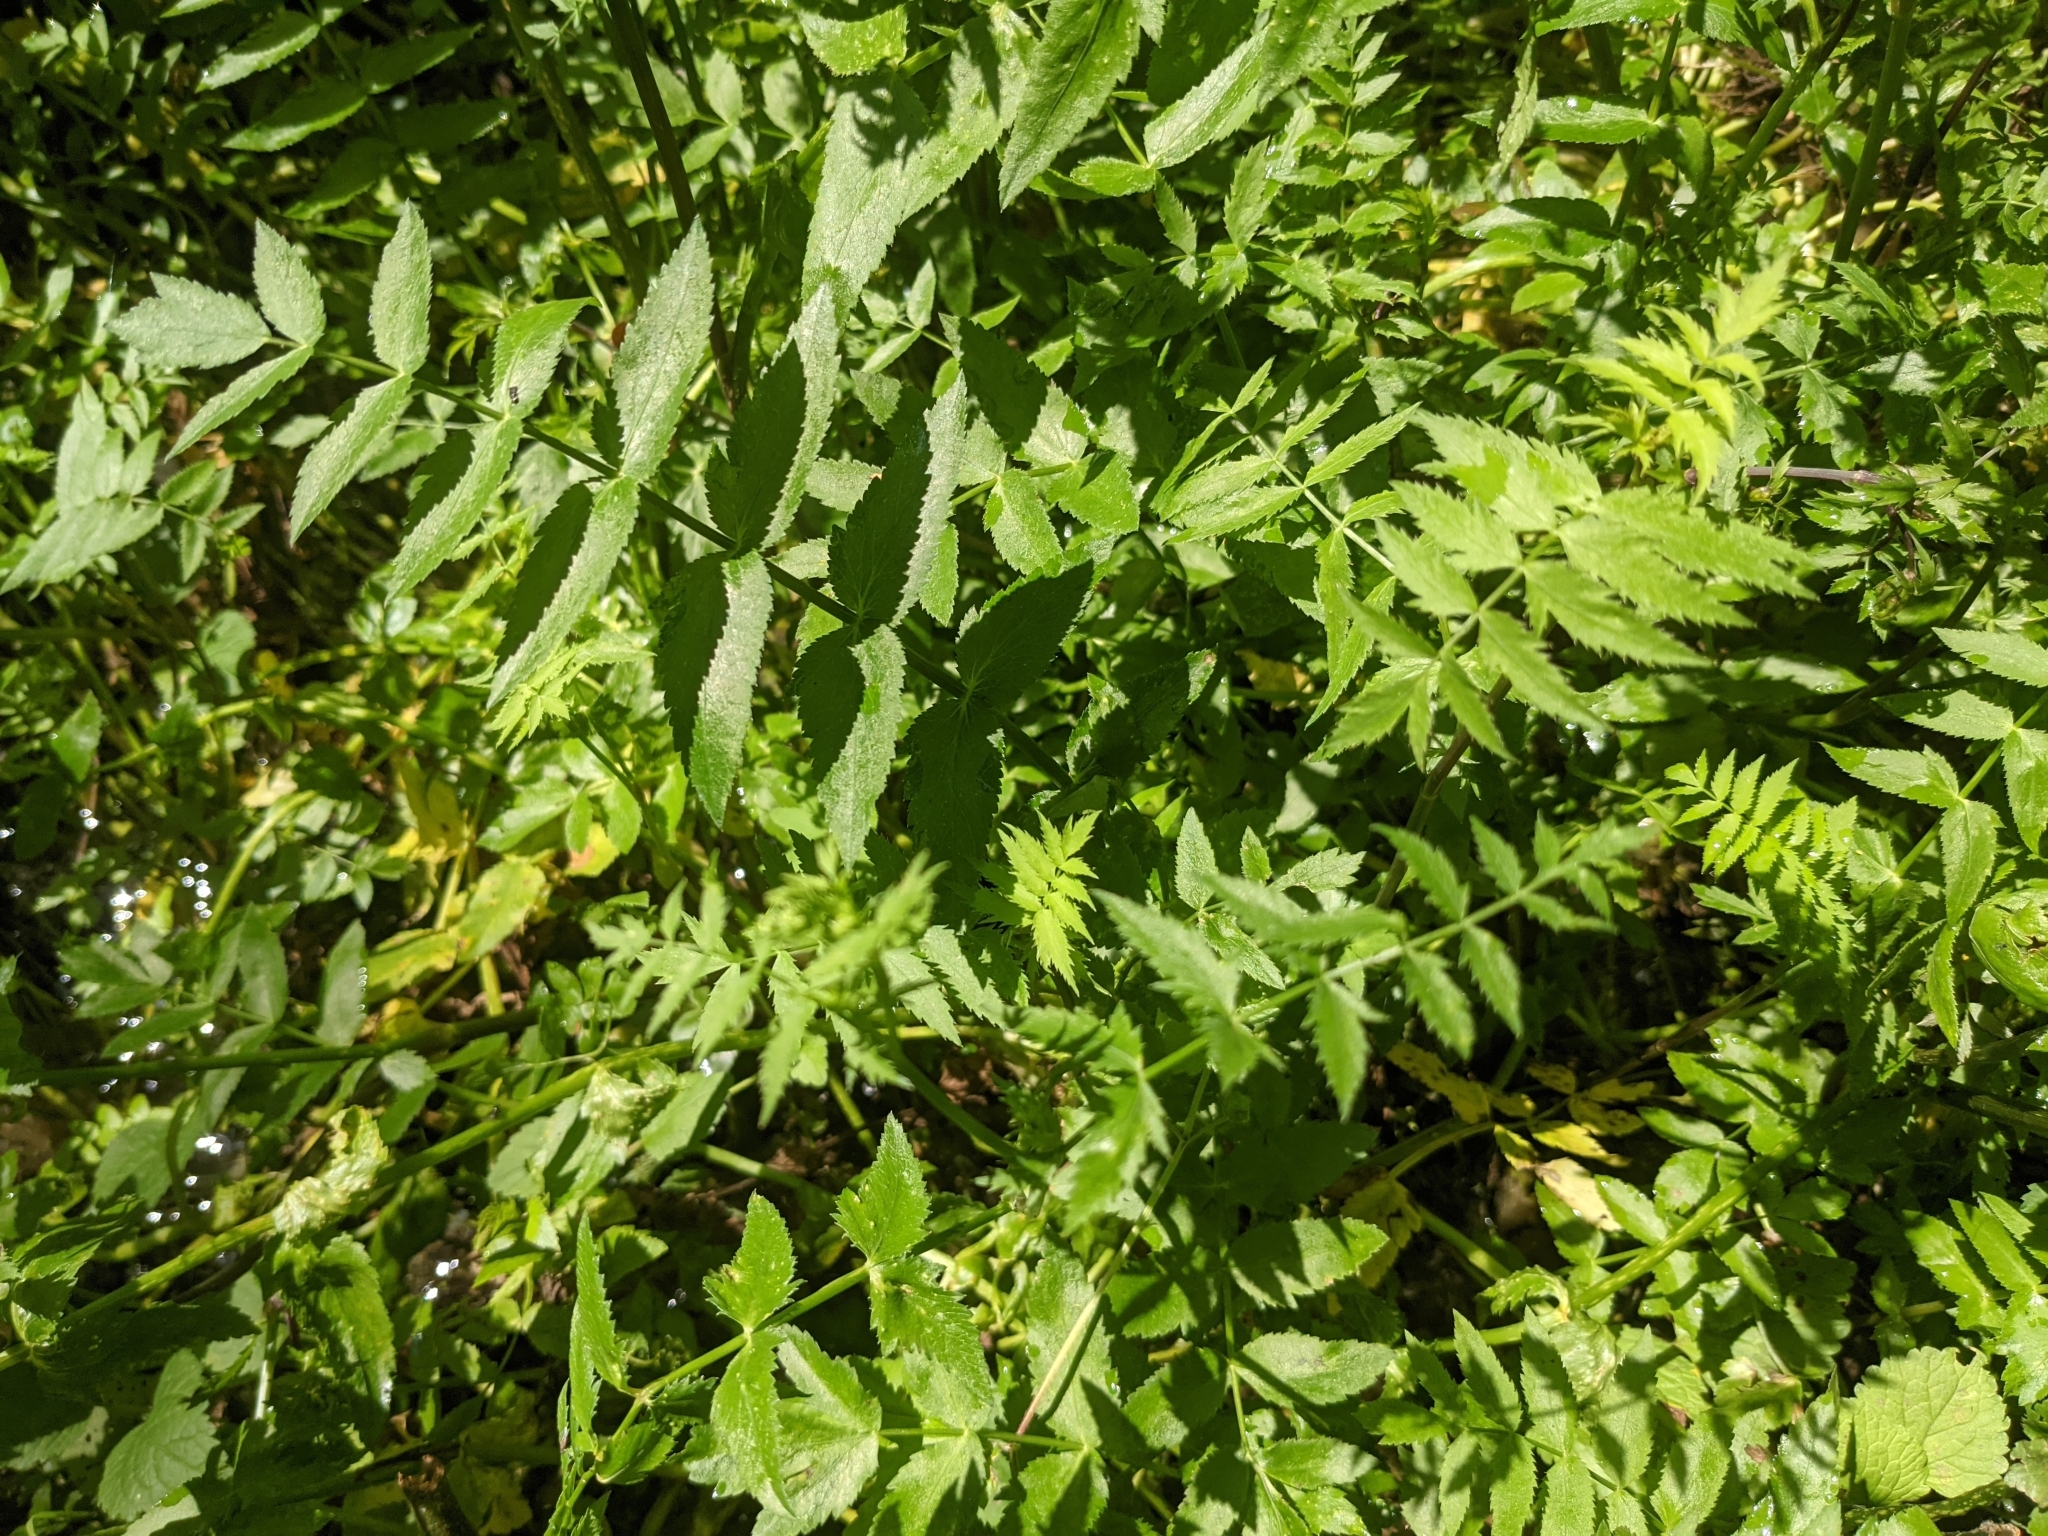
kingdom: Plantae
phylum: Tracheophyta
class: Magnoliopsida
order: Apiales
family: Apiaceae
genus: Berula
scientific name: Berula erecta
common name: Lesser water-parsnip
